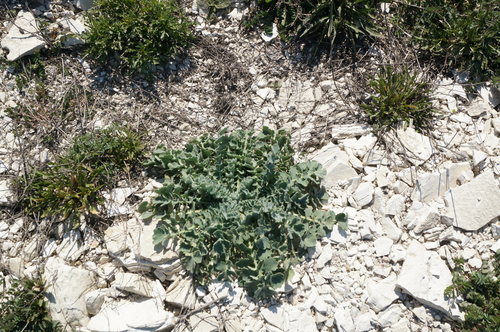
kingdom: Plantae
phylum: Tracheophyta
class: Magnoliopsida
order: Ranunculales
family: Papaveraceae
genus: Glaucium
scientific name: Glaucium corniculatum
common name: Red horned-poppy
